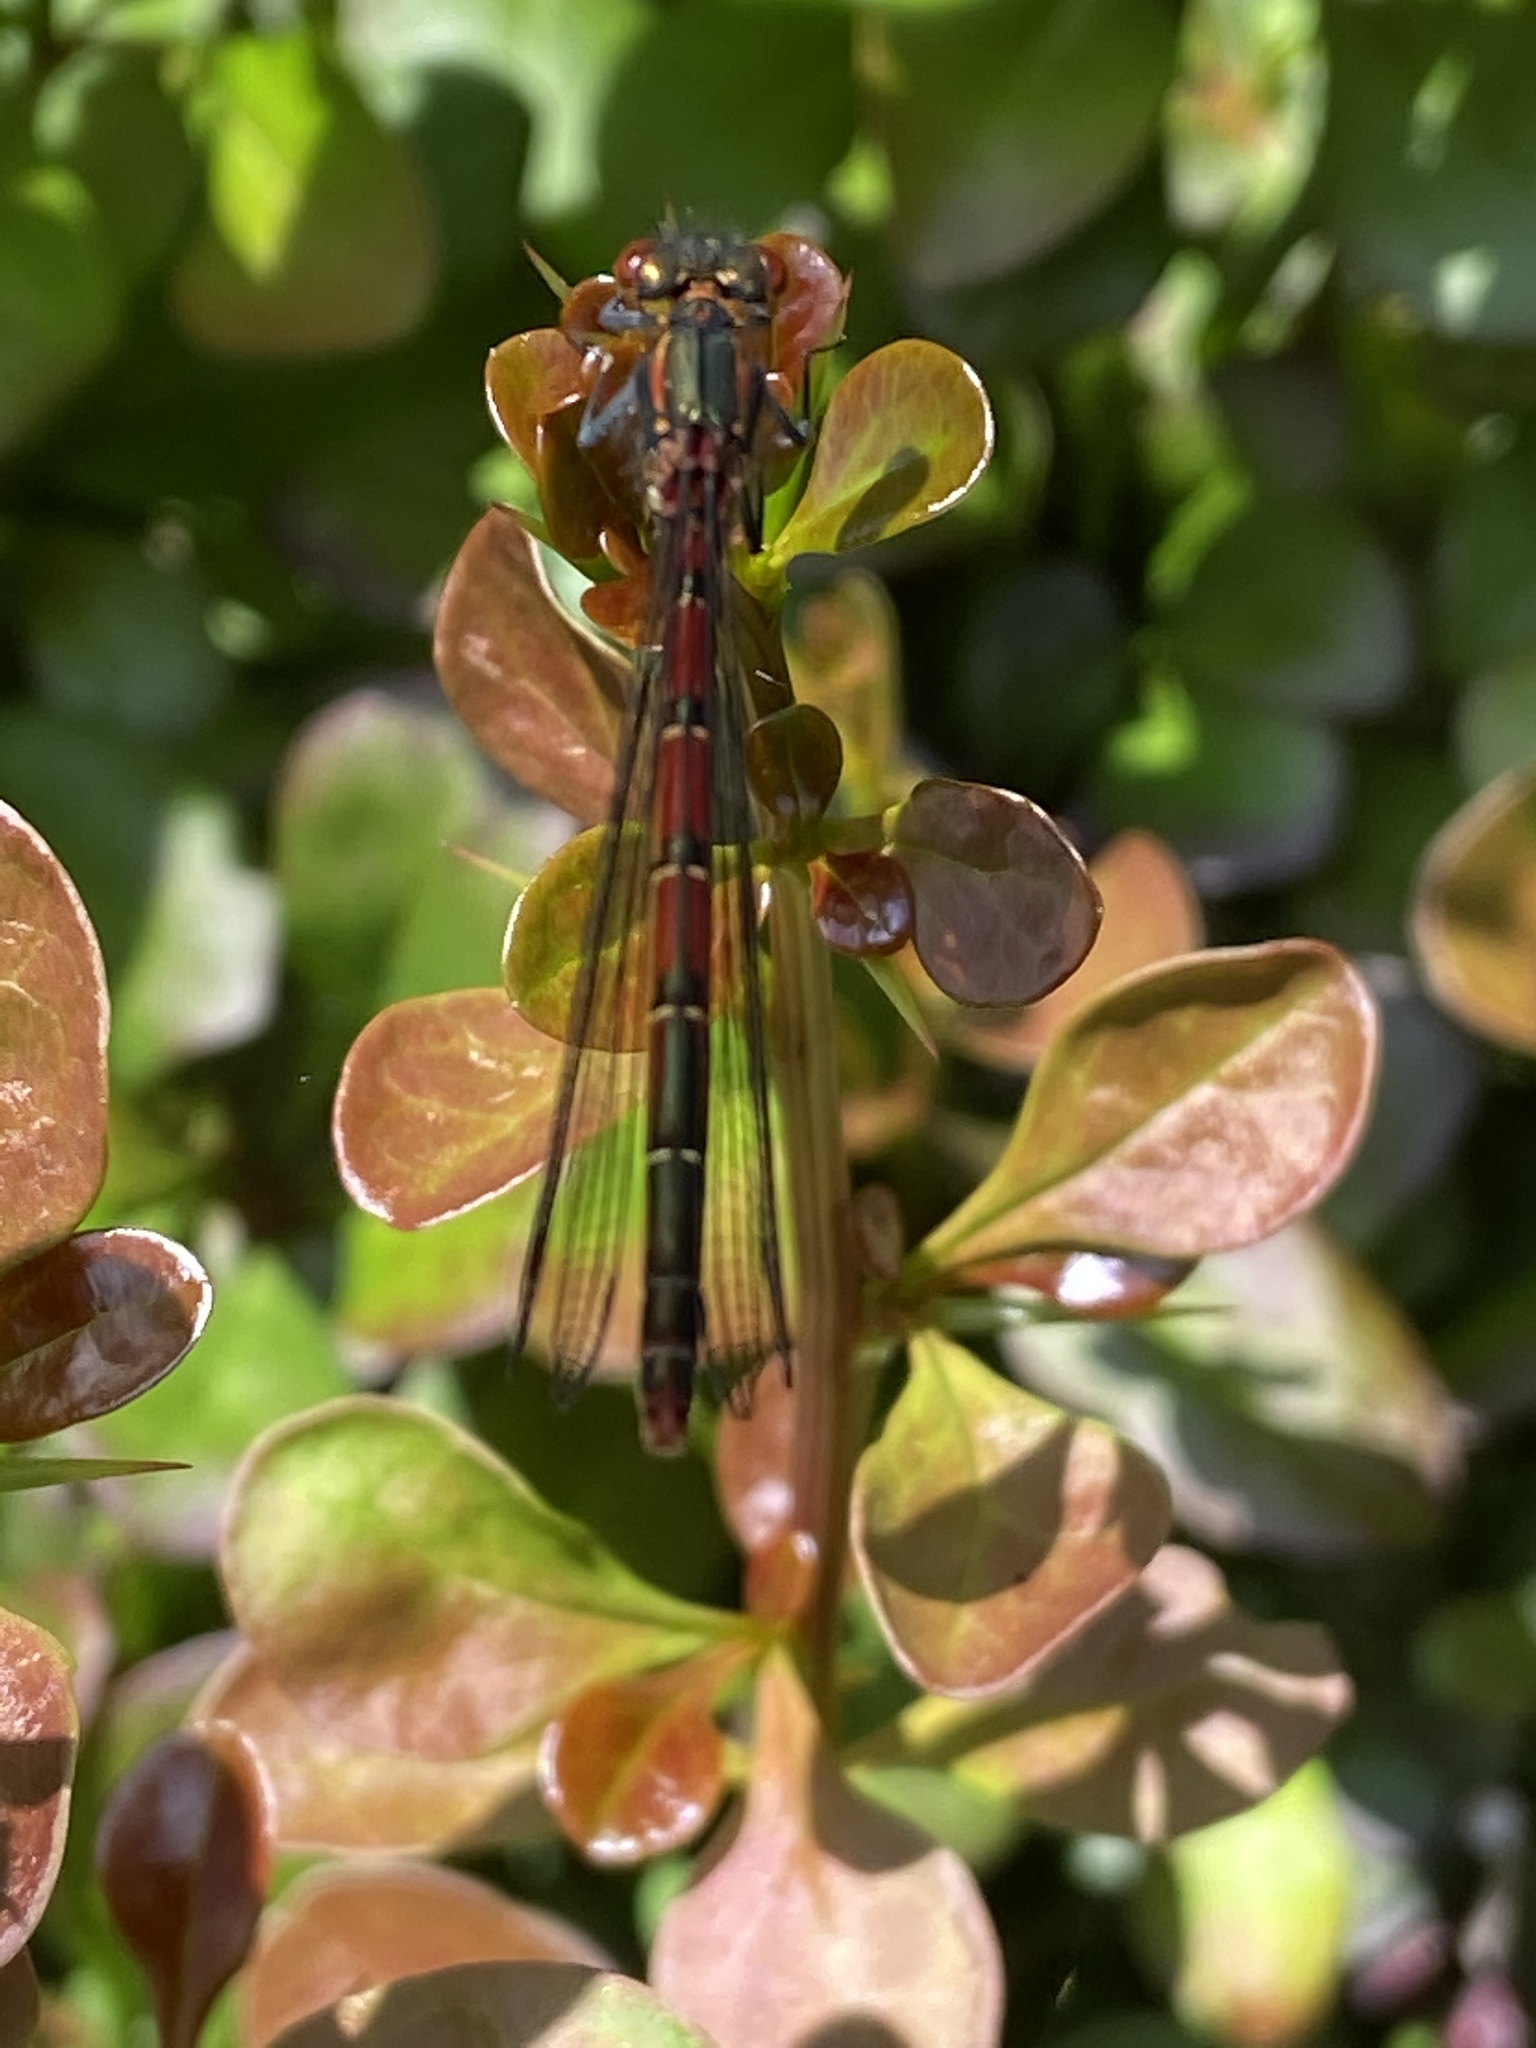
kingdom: Animalia
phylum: Arthropoda
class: Insecta
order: Odonata
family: Coenagrionidae
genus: Pyrrhosoma
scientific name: Pyrrhosoma nymphula
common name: Large red damsel
